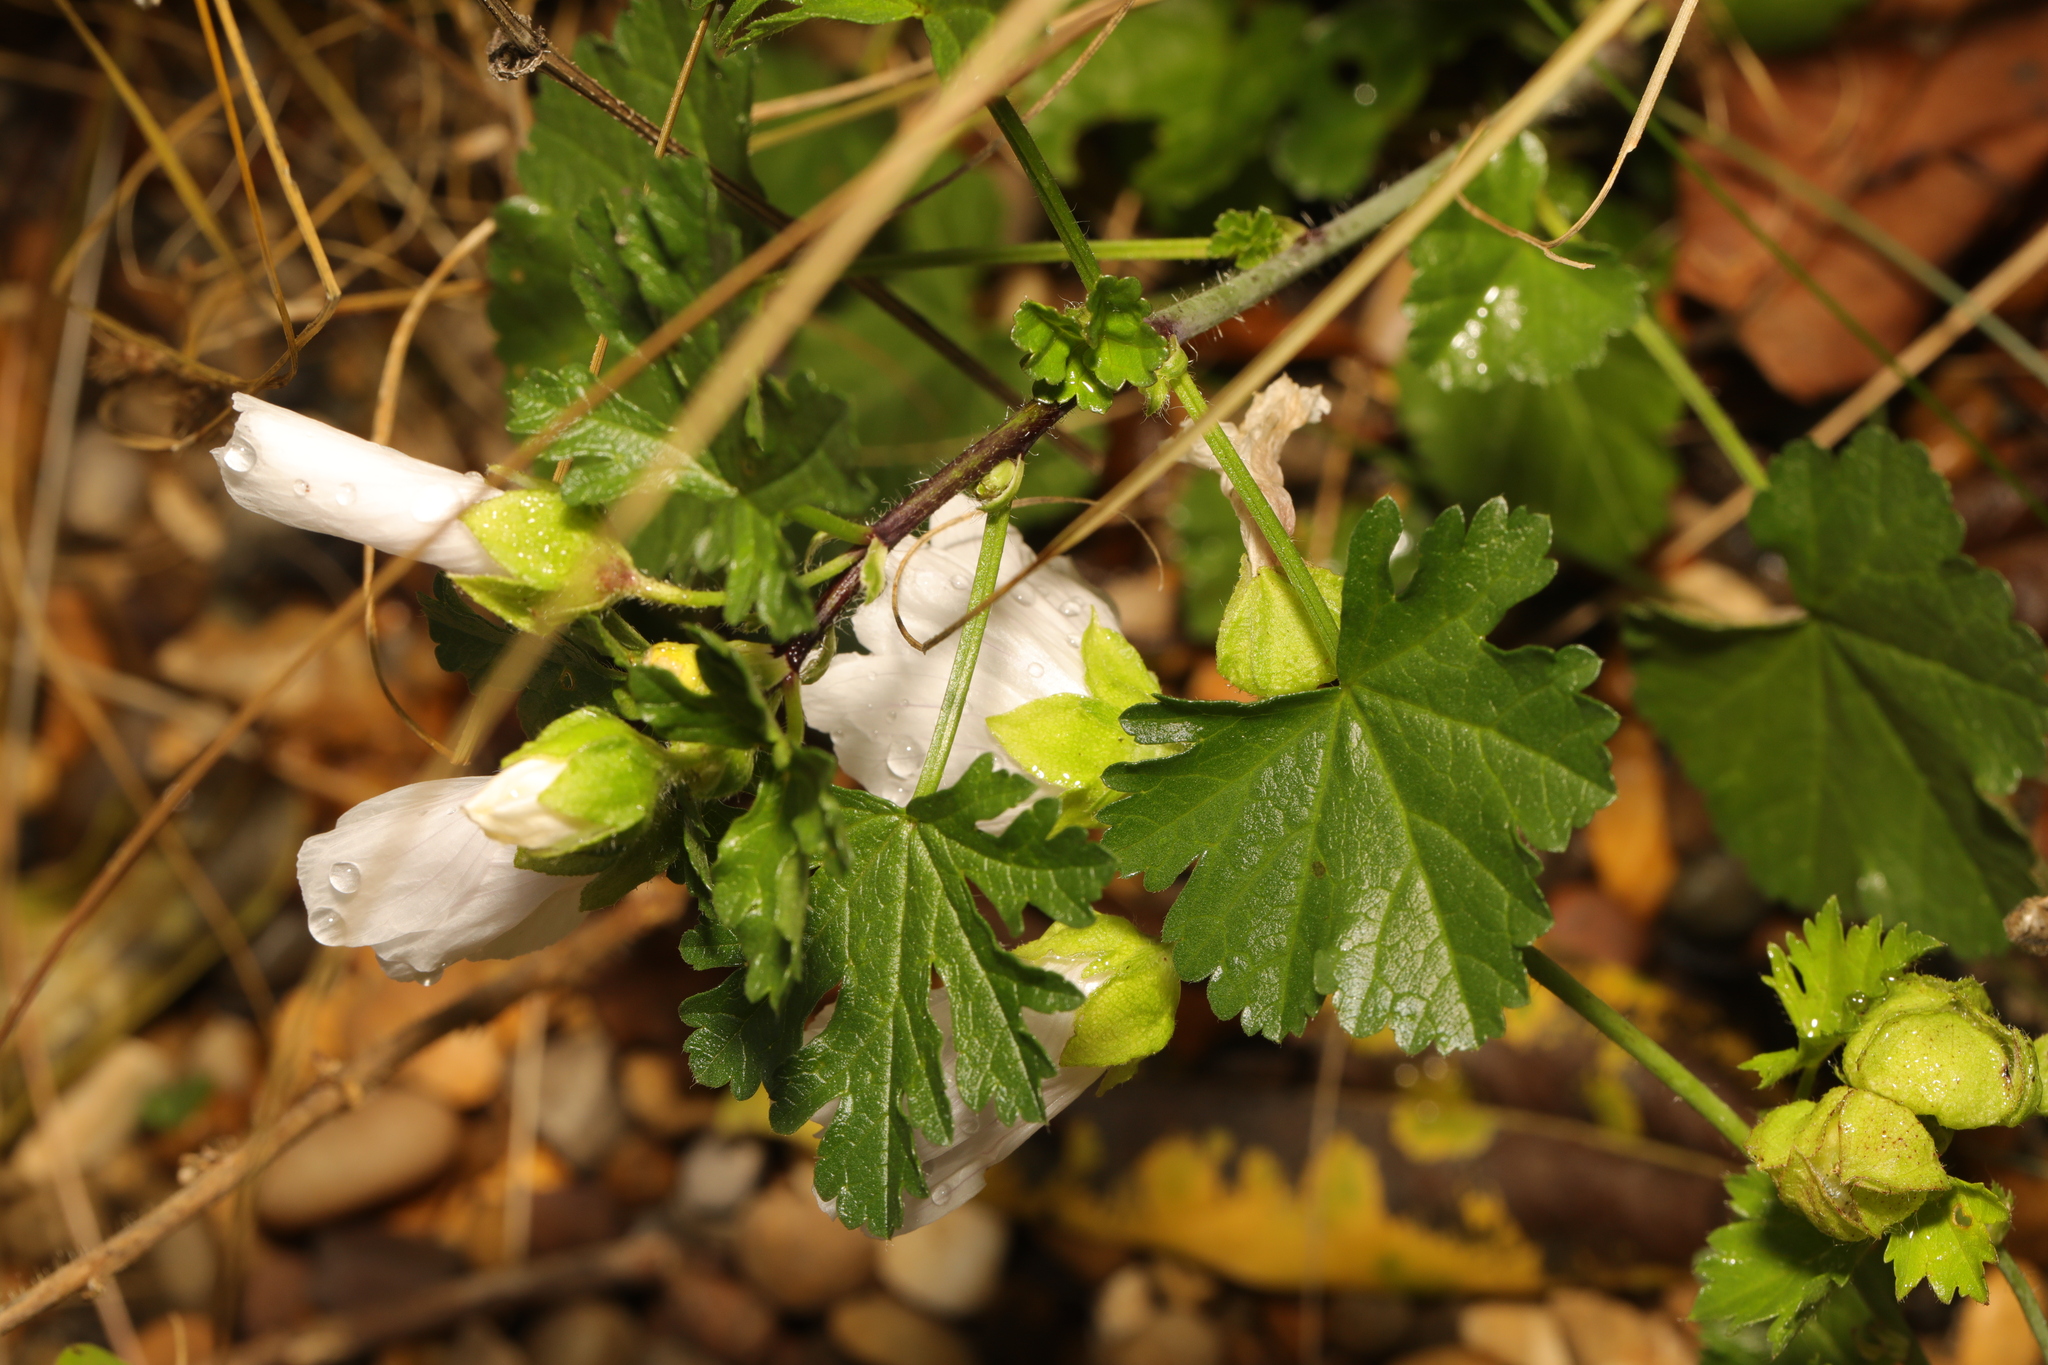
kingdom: Plantae
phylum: Tracheophyta
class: Magnoliopsida
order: Malvales
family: Malvaceae
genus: Malva
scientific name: Malva moschata
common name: Musk mallow
